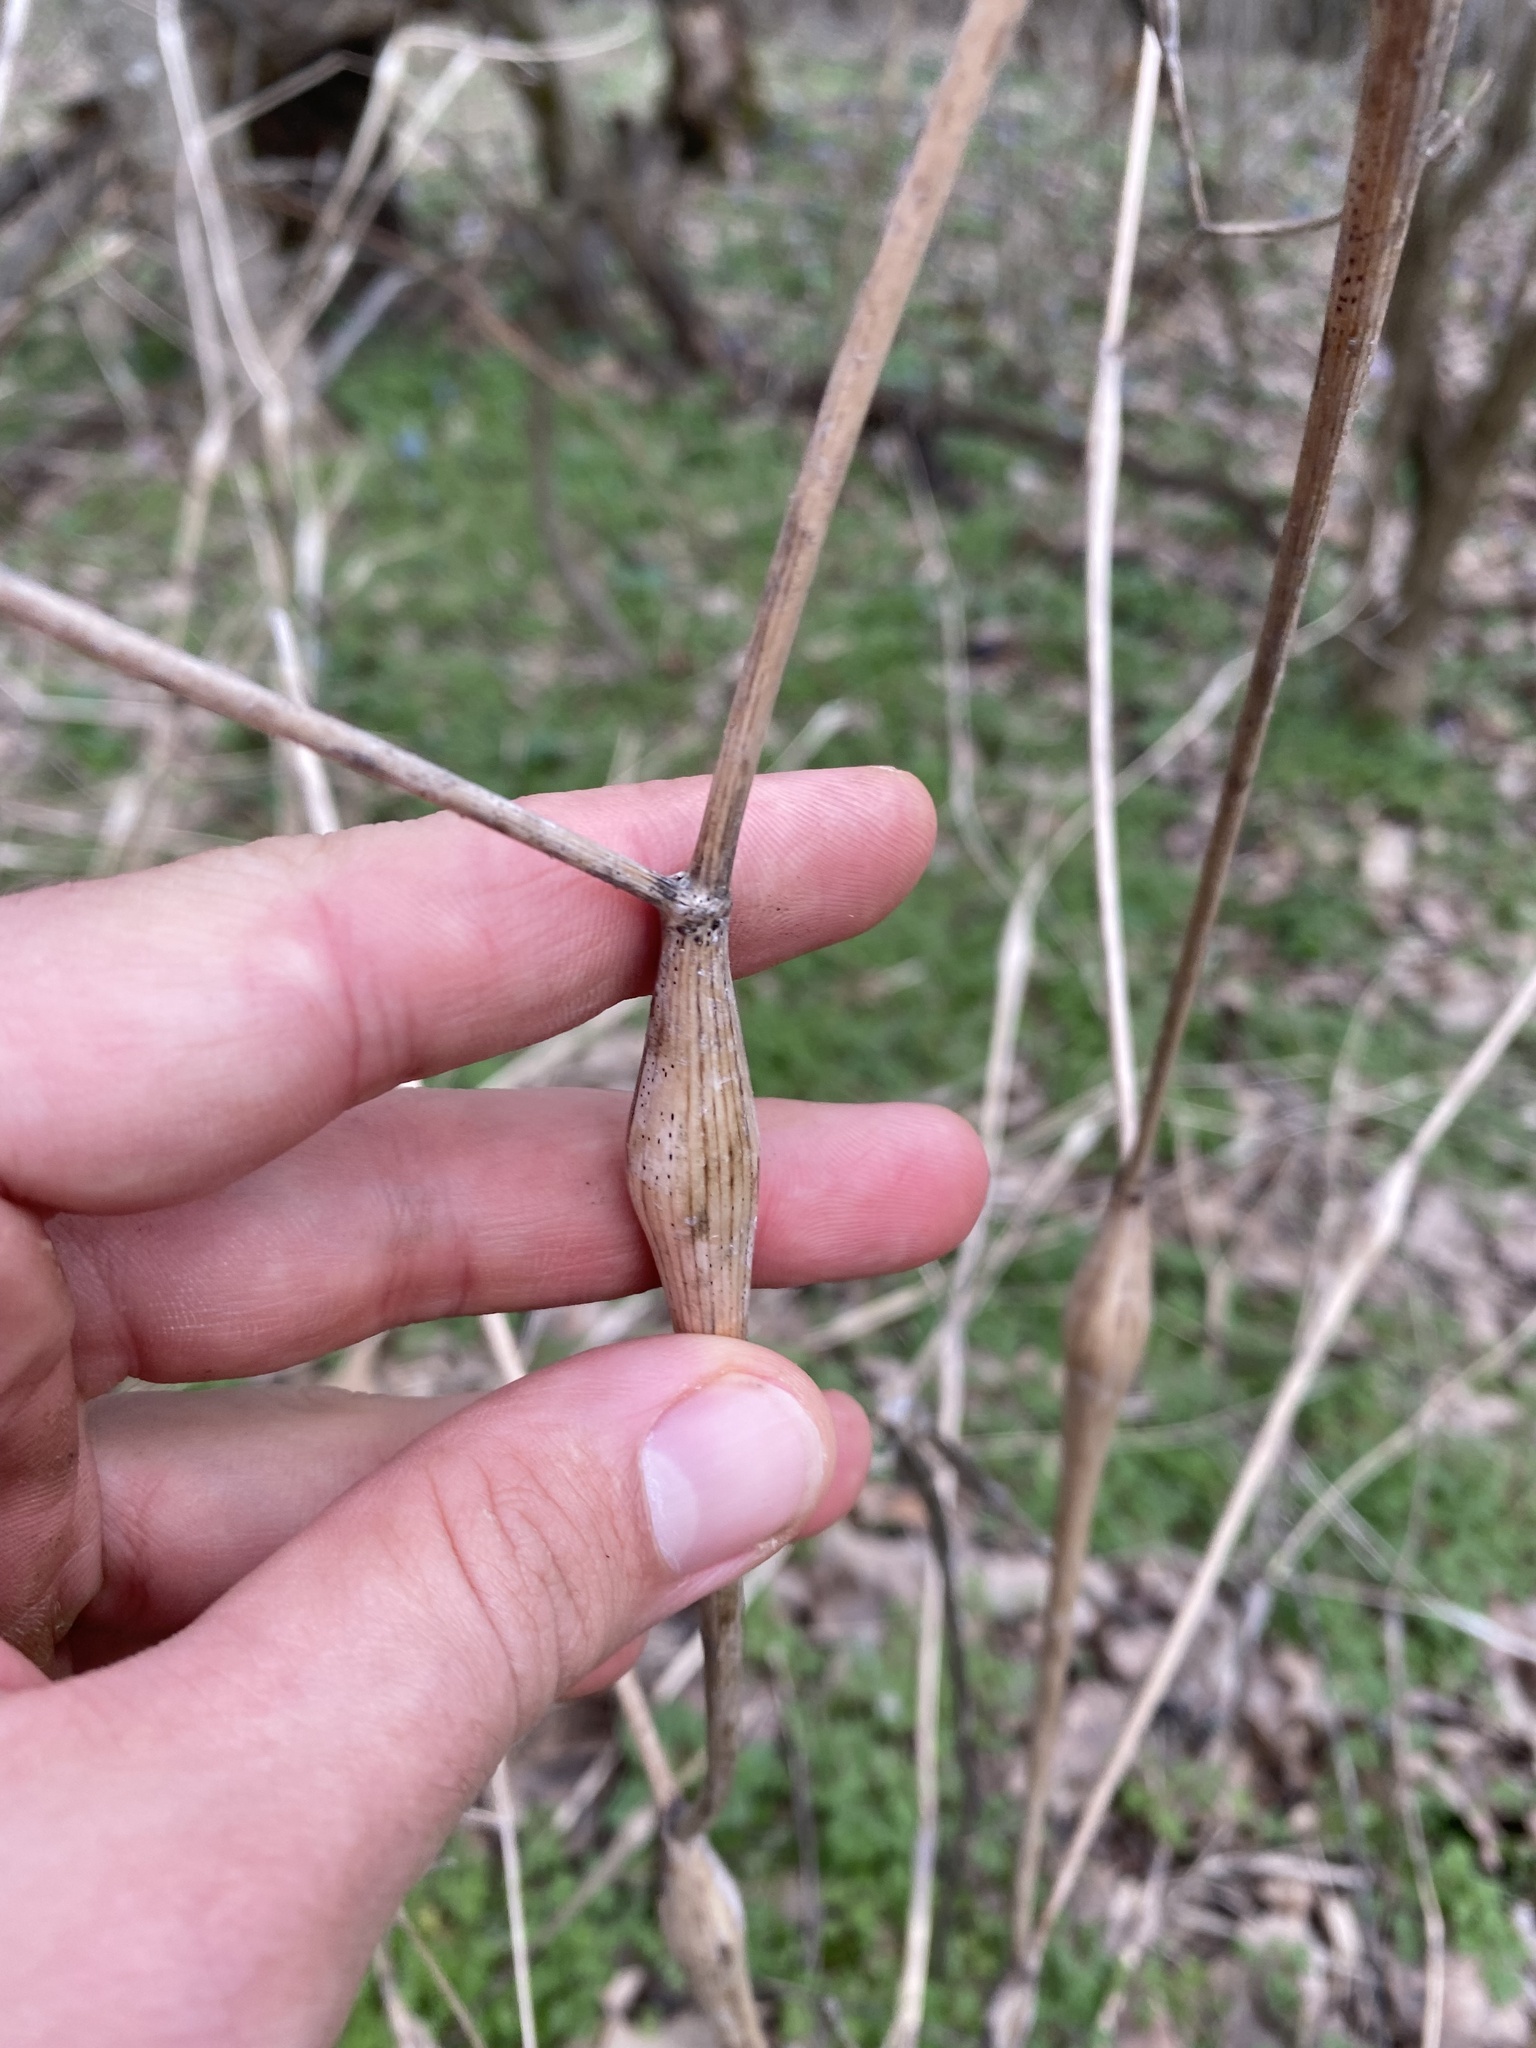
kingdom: Plantae
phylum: Tracheophyta
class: Magnoliopsida
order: Apiales
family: Apiaceae
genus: Chaerophyllum
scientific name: Chaerophyllum nodosum
